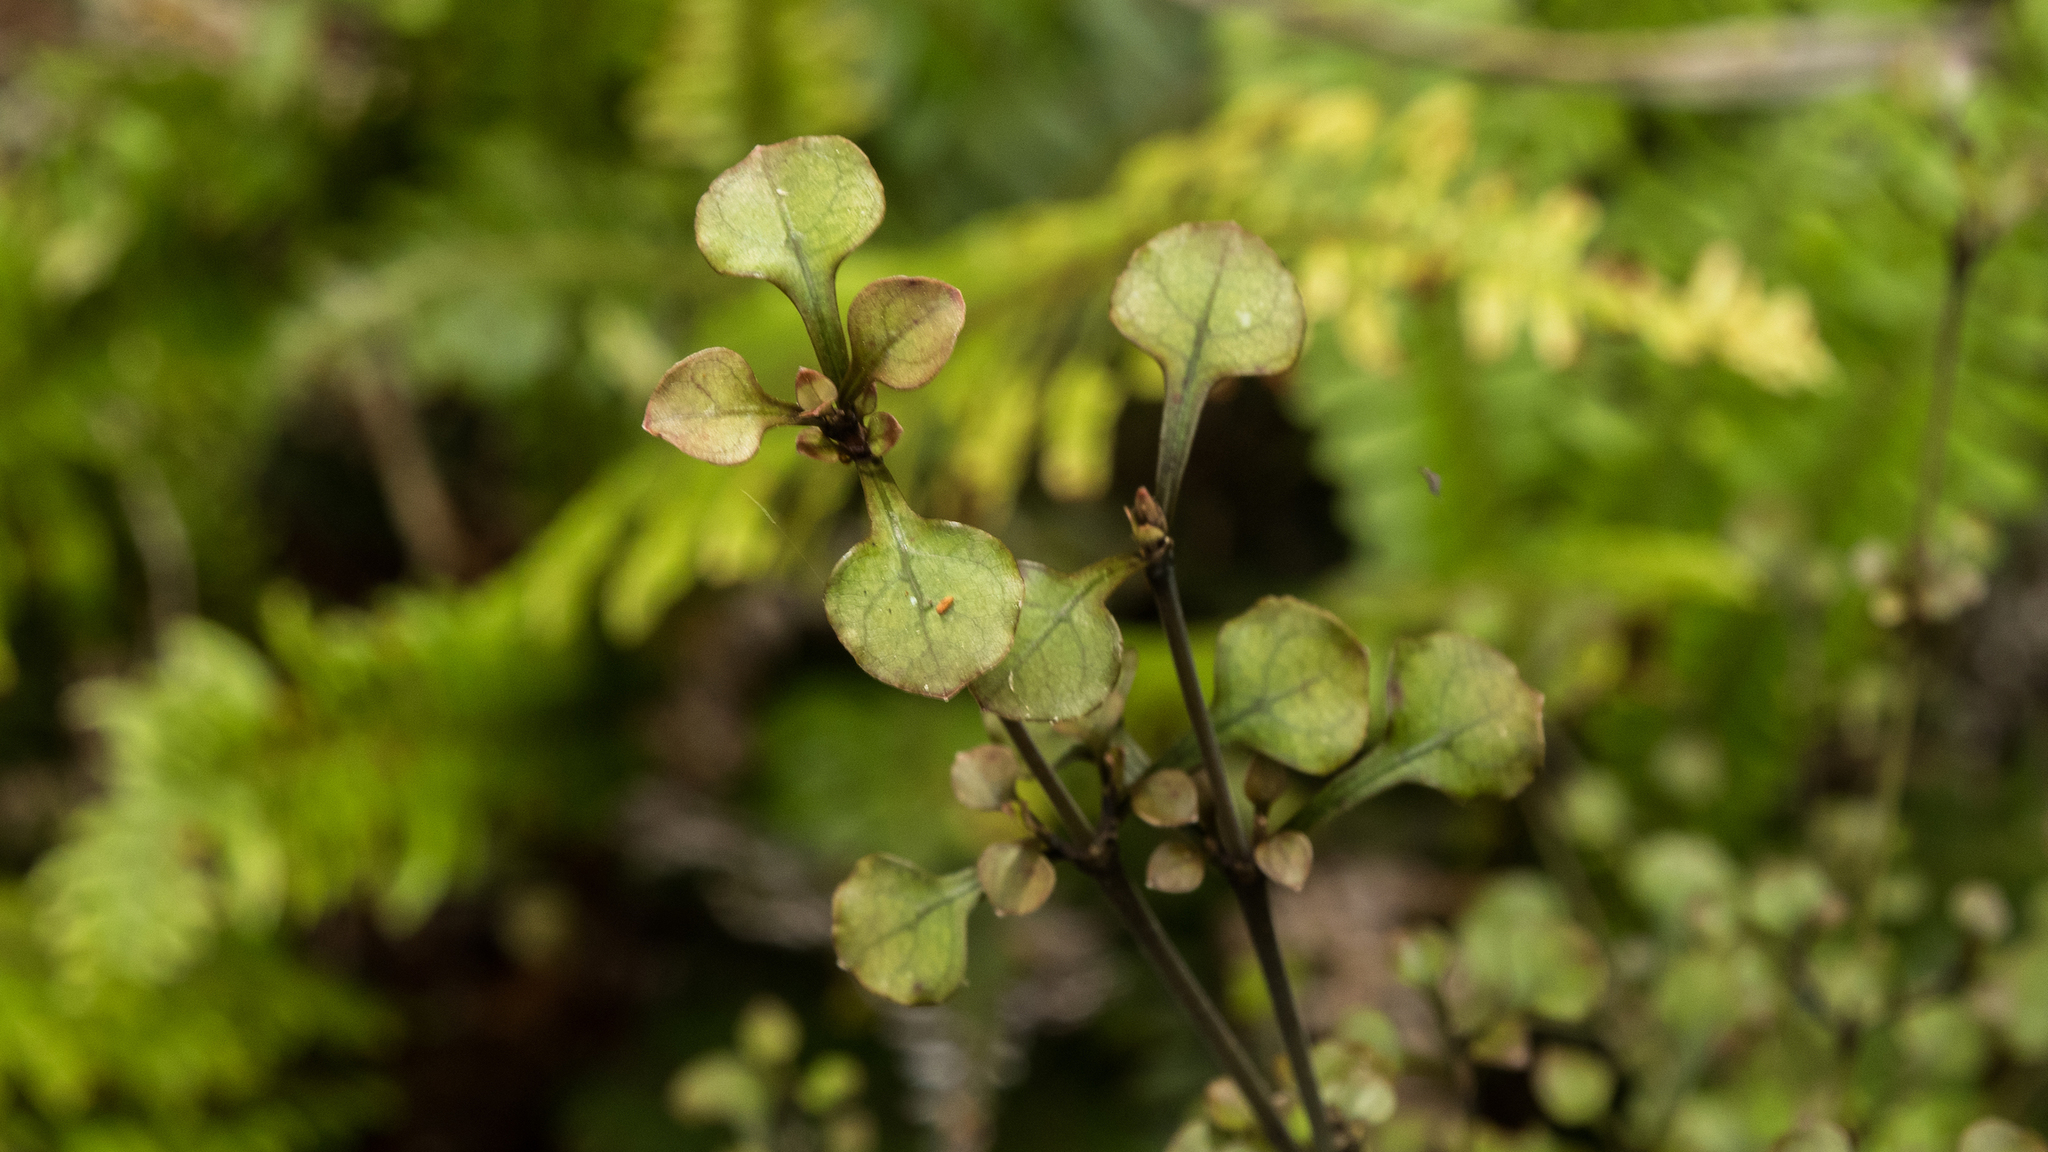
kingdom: Plantae
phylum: Tracheophyta
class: Magnoliopsida
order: Gentianales
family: Rubiaceae
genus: Coprosma
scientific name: Coprosma arborea
